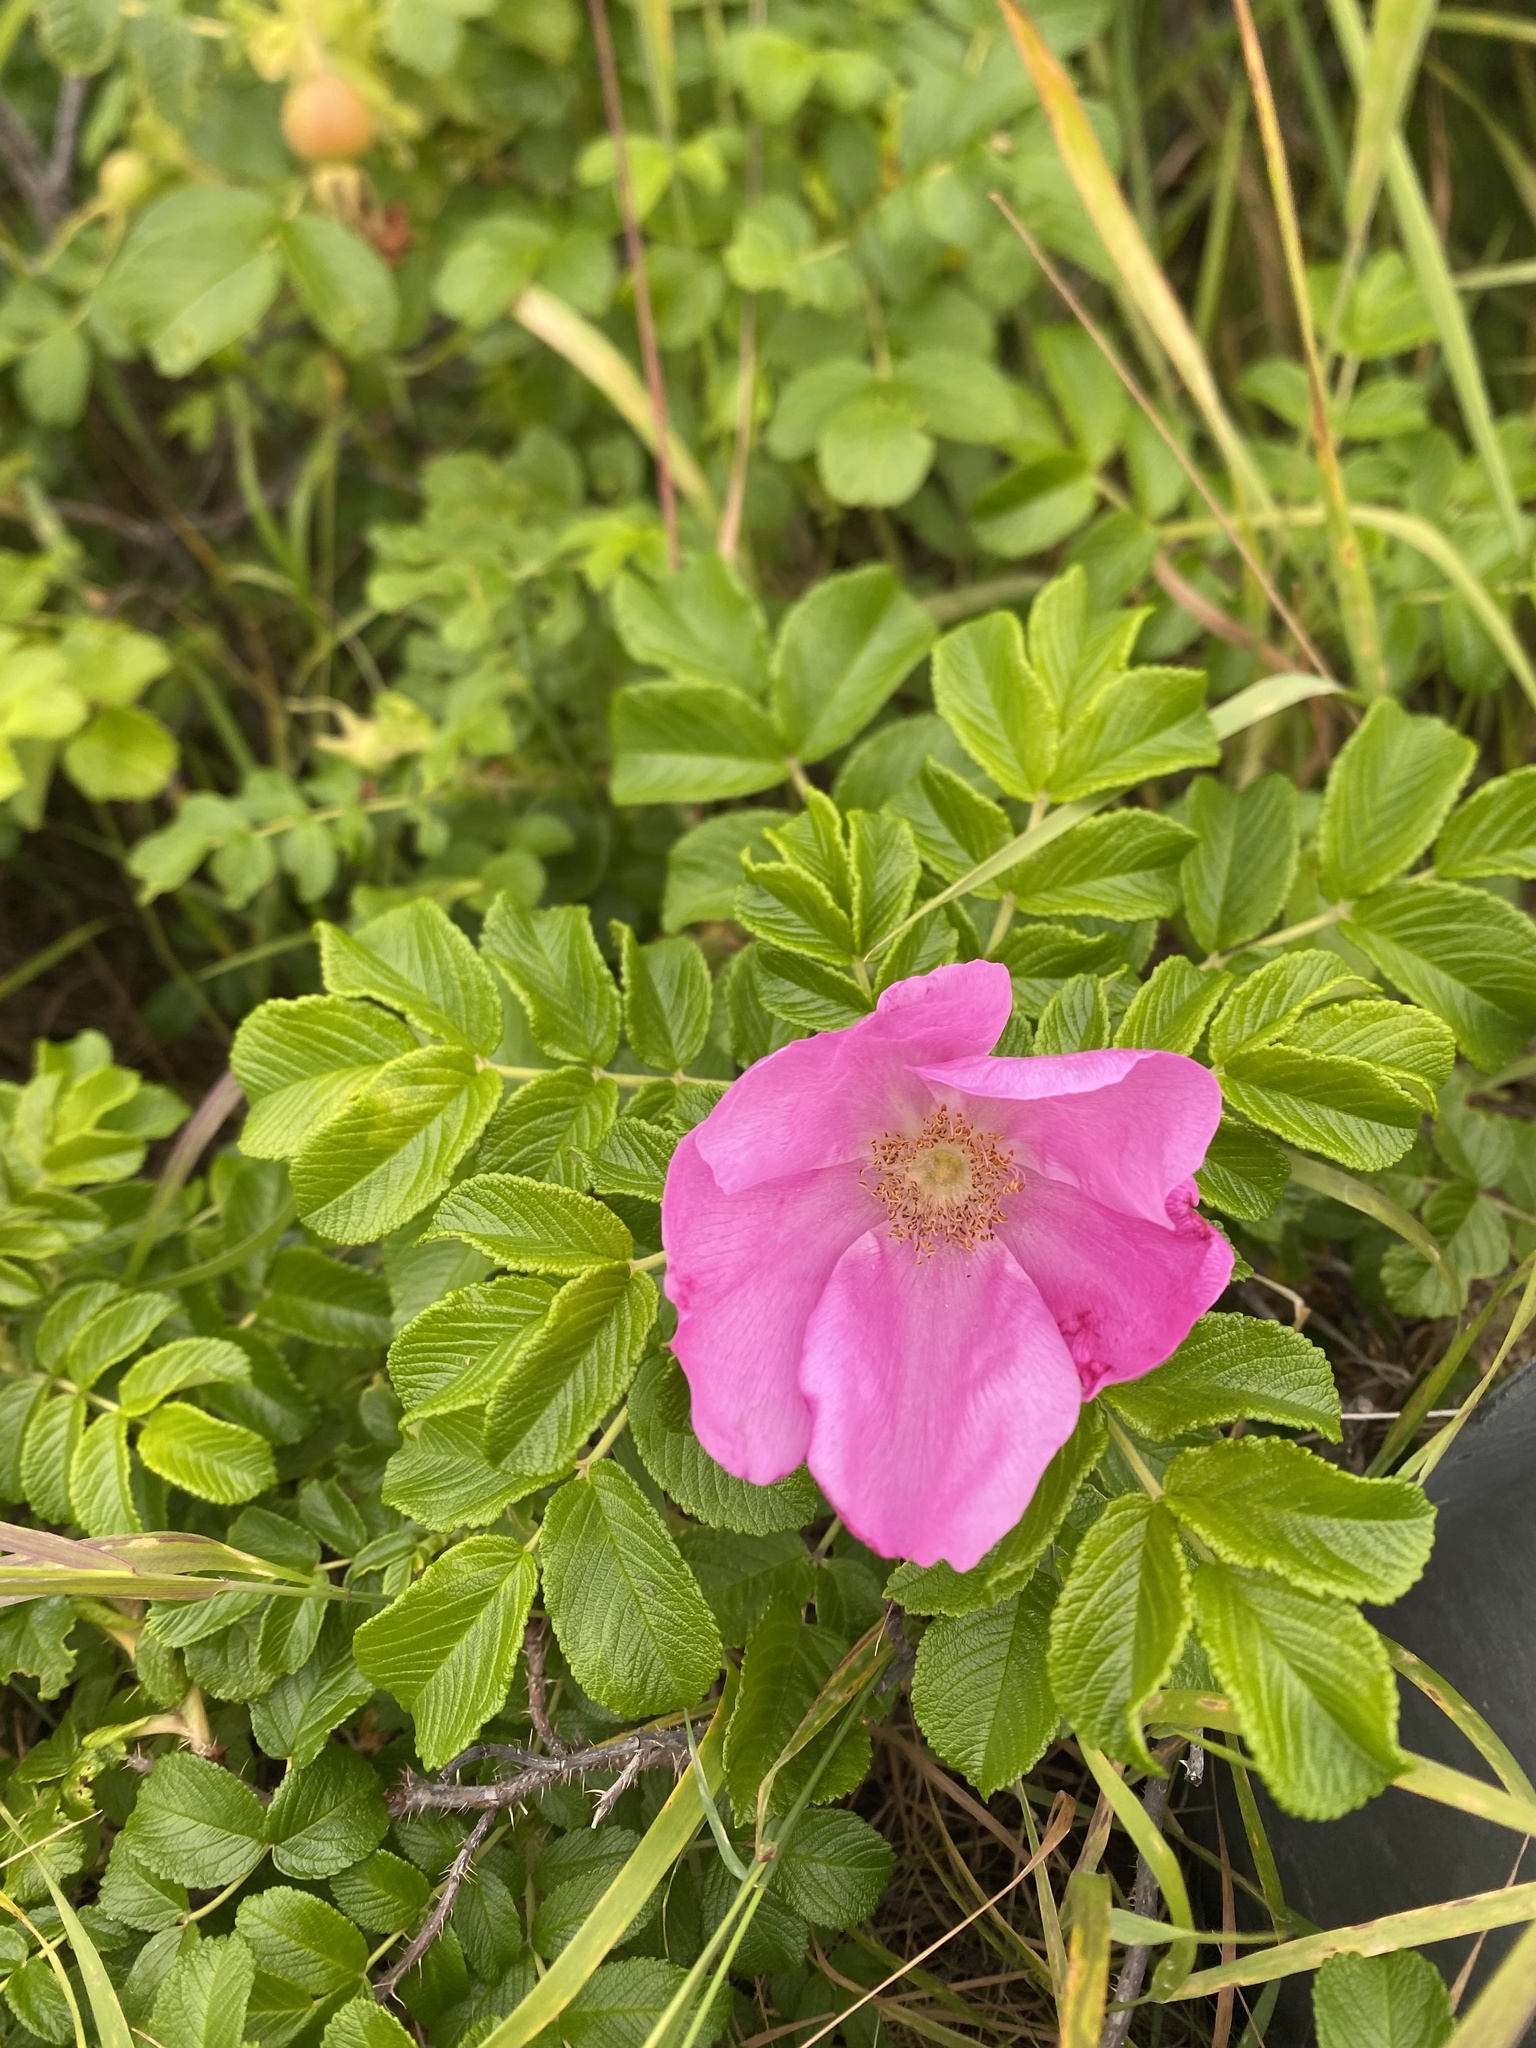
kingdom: Plantae
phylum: Tracheophyta
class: Magnoliopsida
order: Rosales
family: Rosaceae
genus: Rosa
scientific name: Rosa rugosa
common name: Japanese rose
